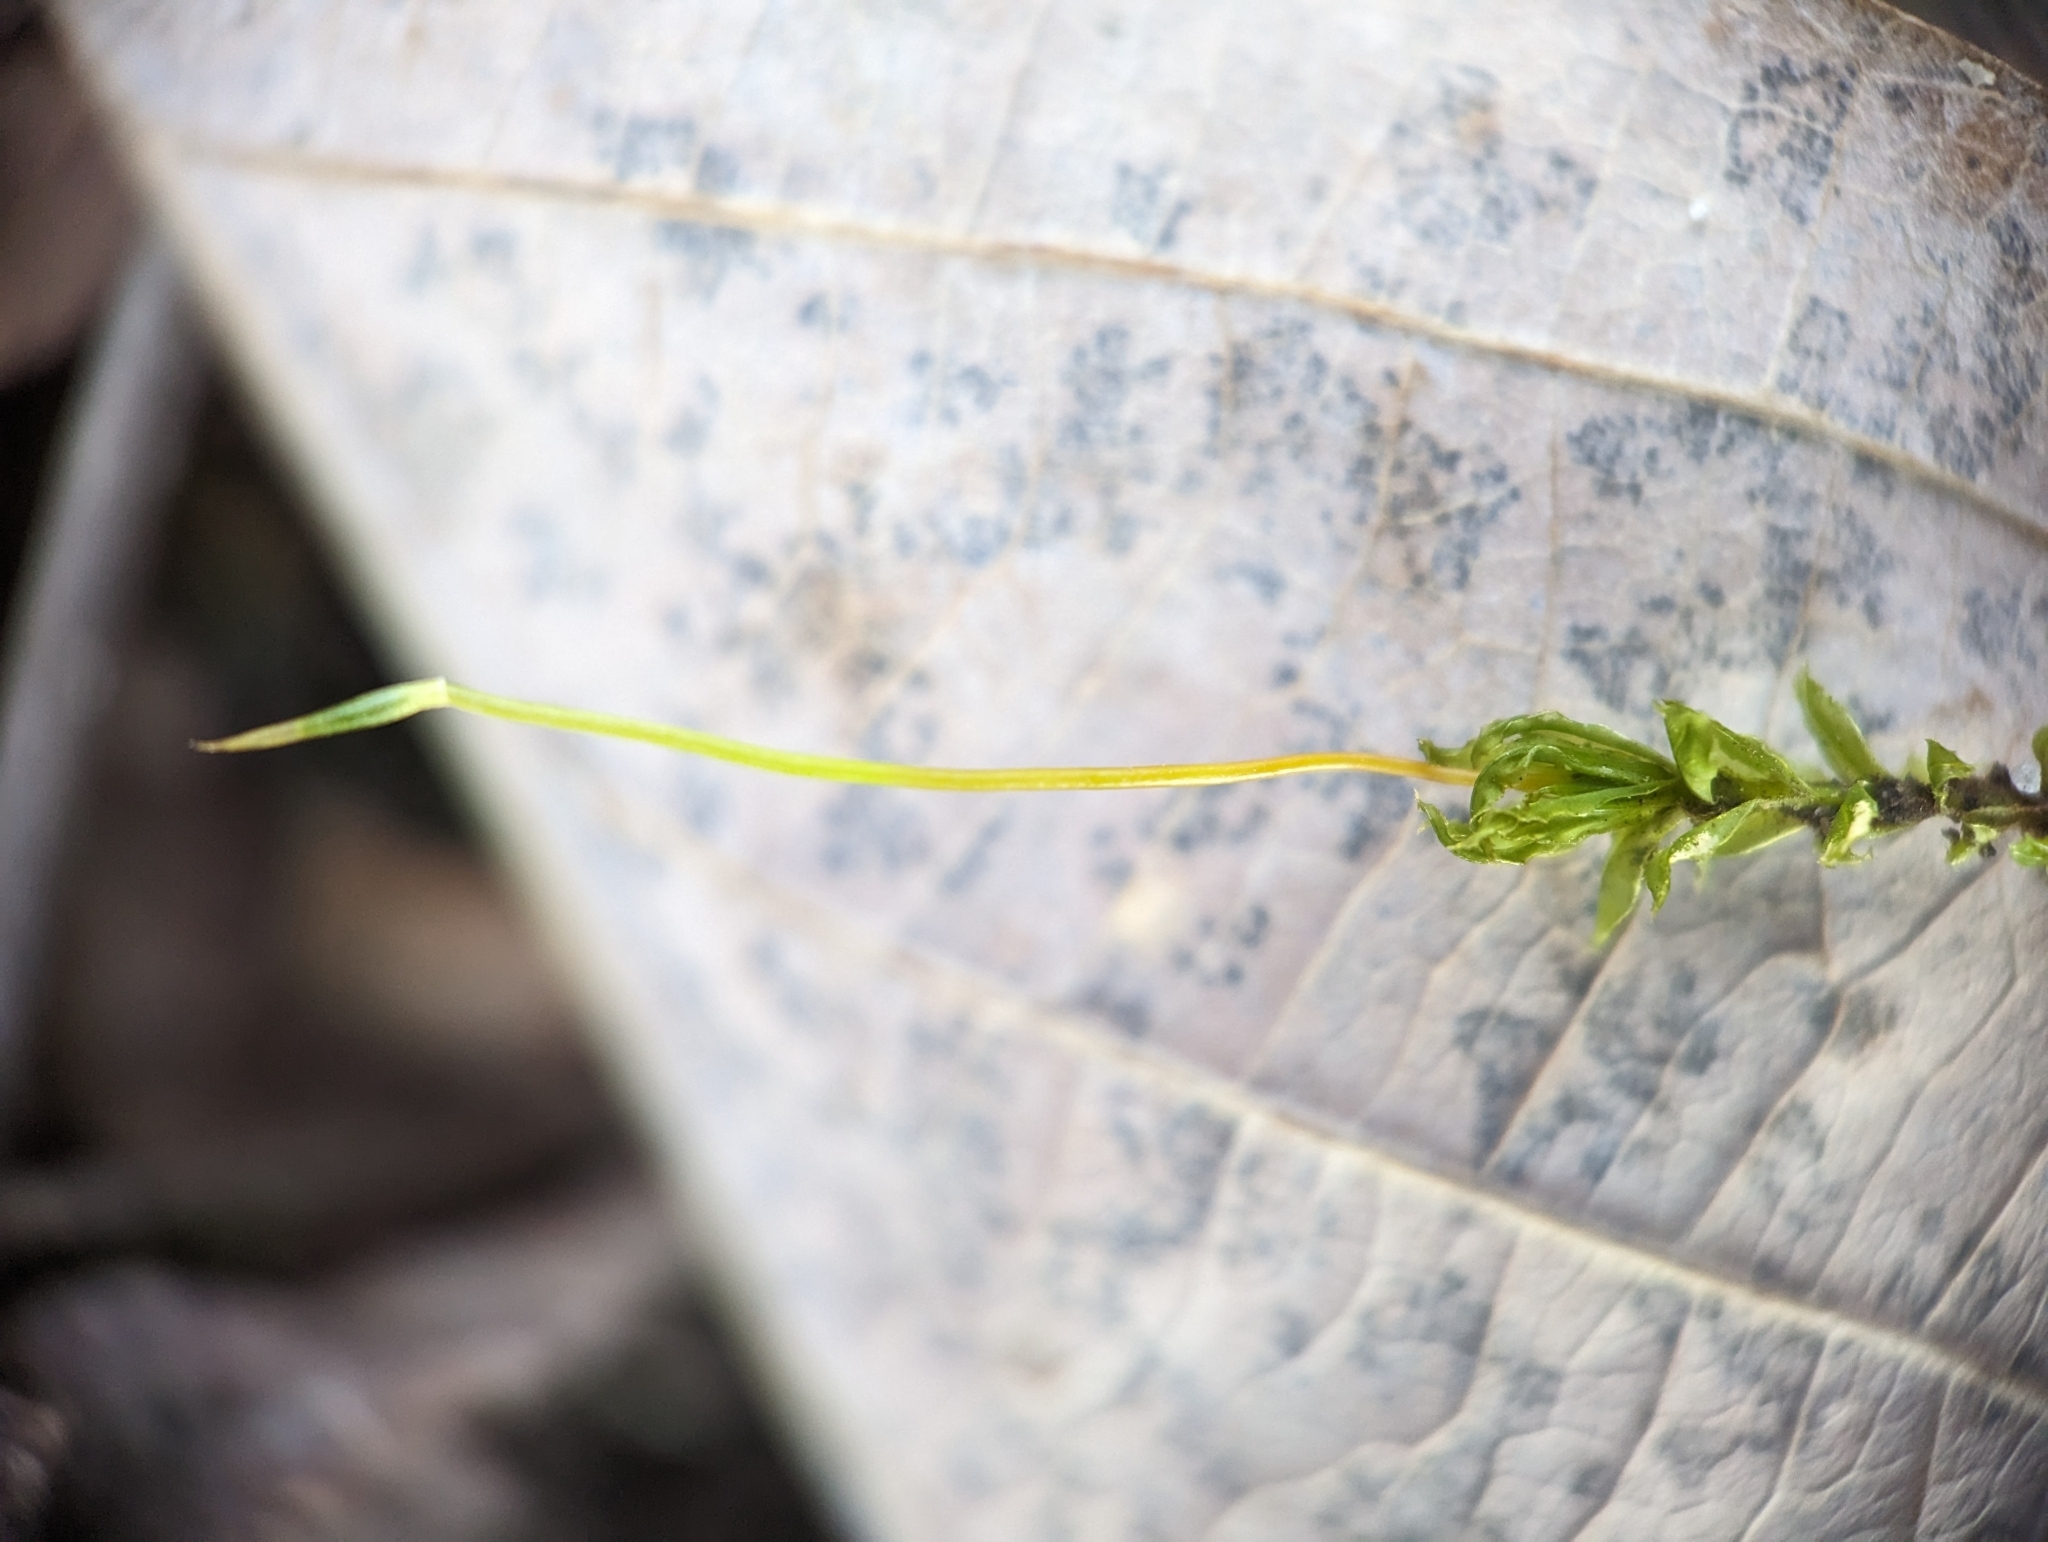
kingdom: Plantae
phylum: Bryophyta
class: Bryopsida
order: Bryales
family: Mniaceae
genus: Plagiomnium
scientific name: Plagiomnium cuspidatum
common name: Woodsy leafy moss
